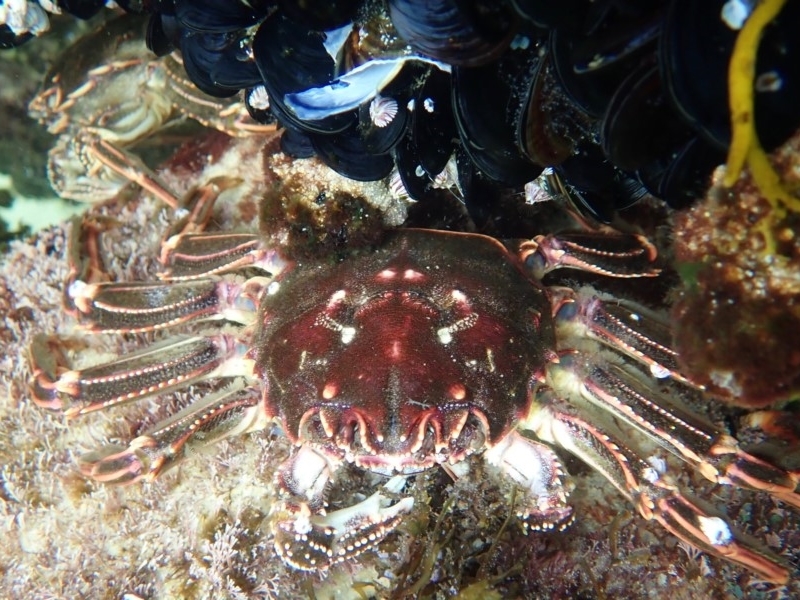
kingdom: Animalia
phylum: Arthropoda
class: Malacostraca
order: Decapoda
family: Plagusiidae
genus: Guinusia
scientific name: Guinusia chabrus
